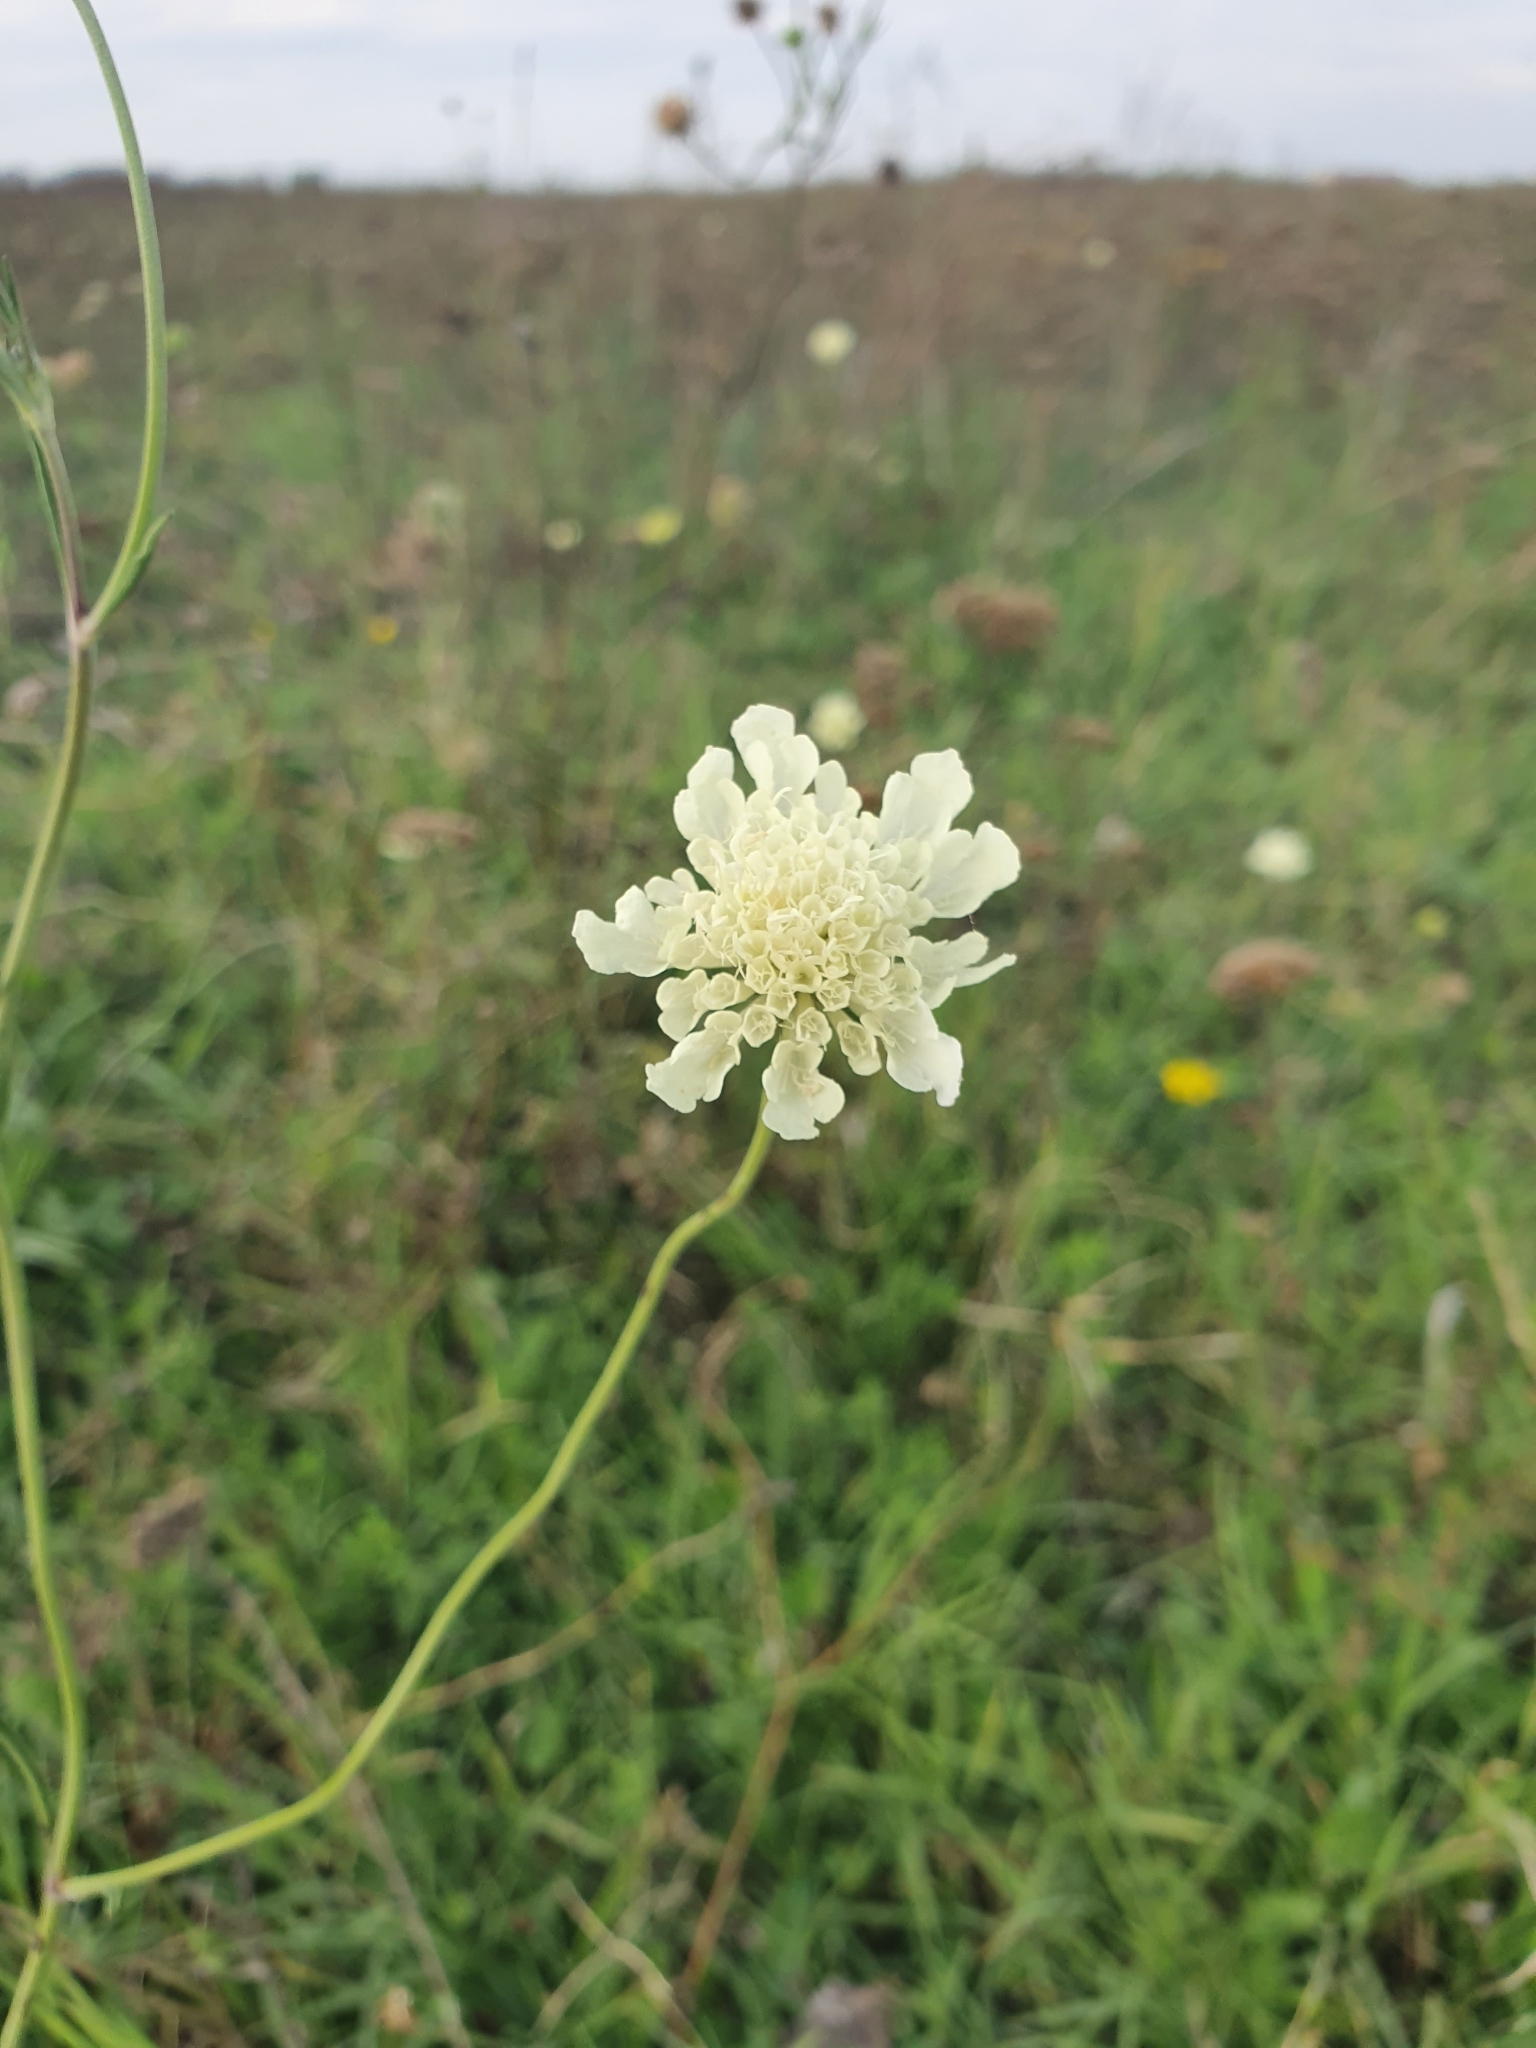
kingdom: Plantae
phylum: Tracheophyta
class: Magnoliopsida
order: Dipsacales
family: Caprifoliaceae
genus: Scabiosa
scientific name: Scabiosa ochroleuca
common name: Cream pincushions
